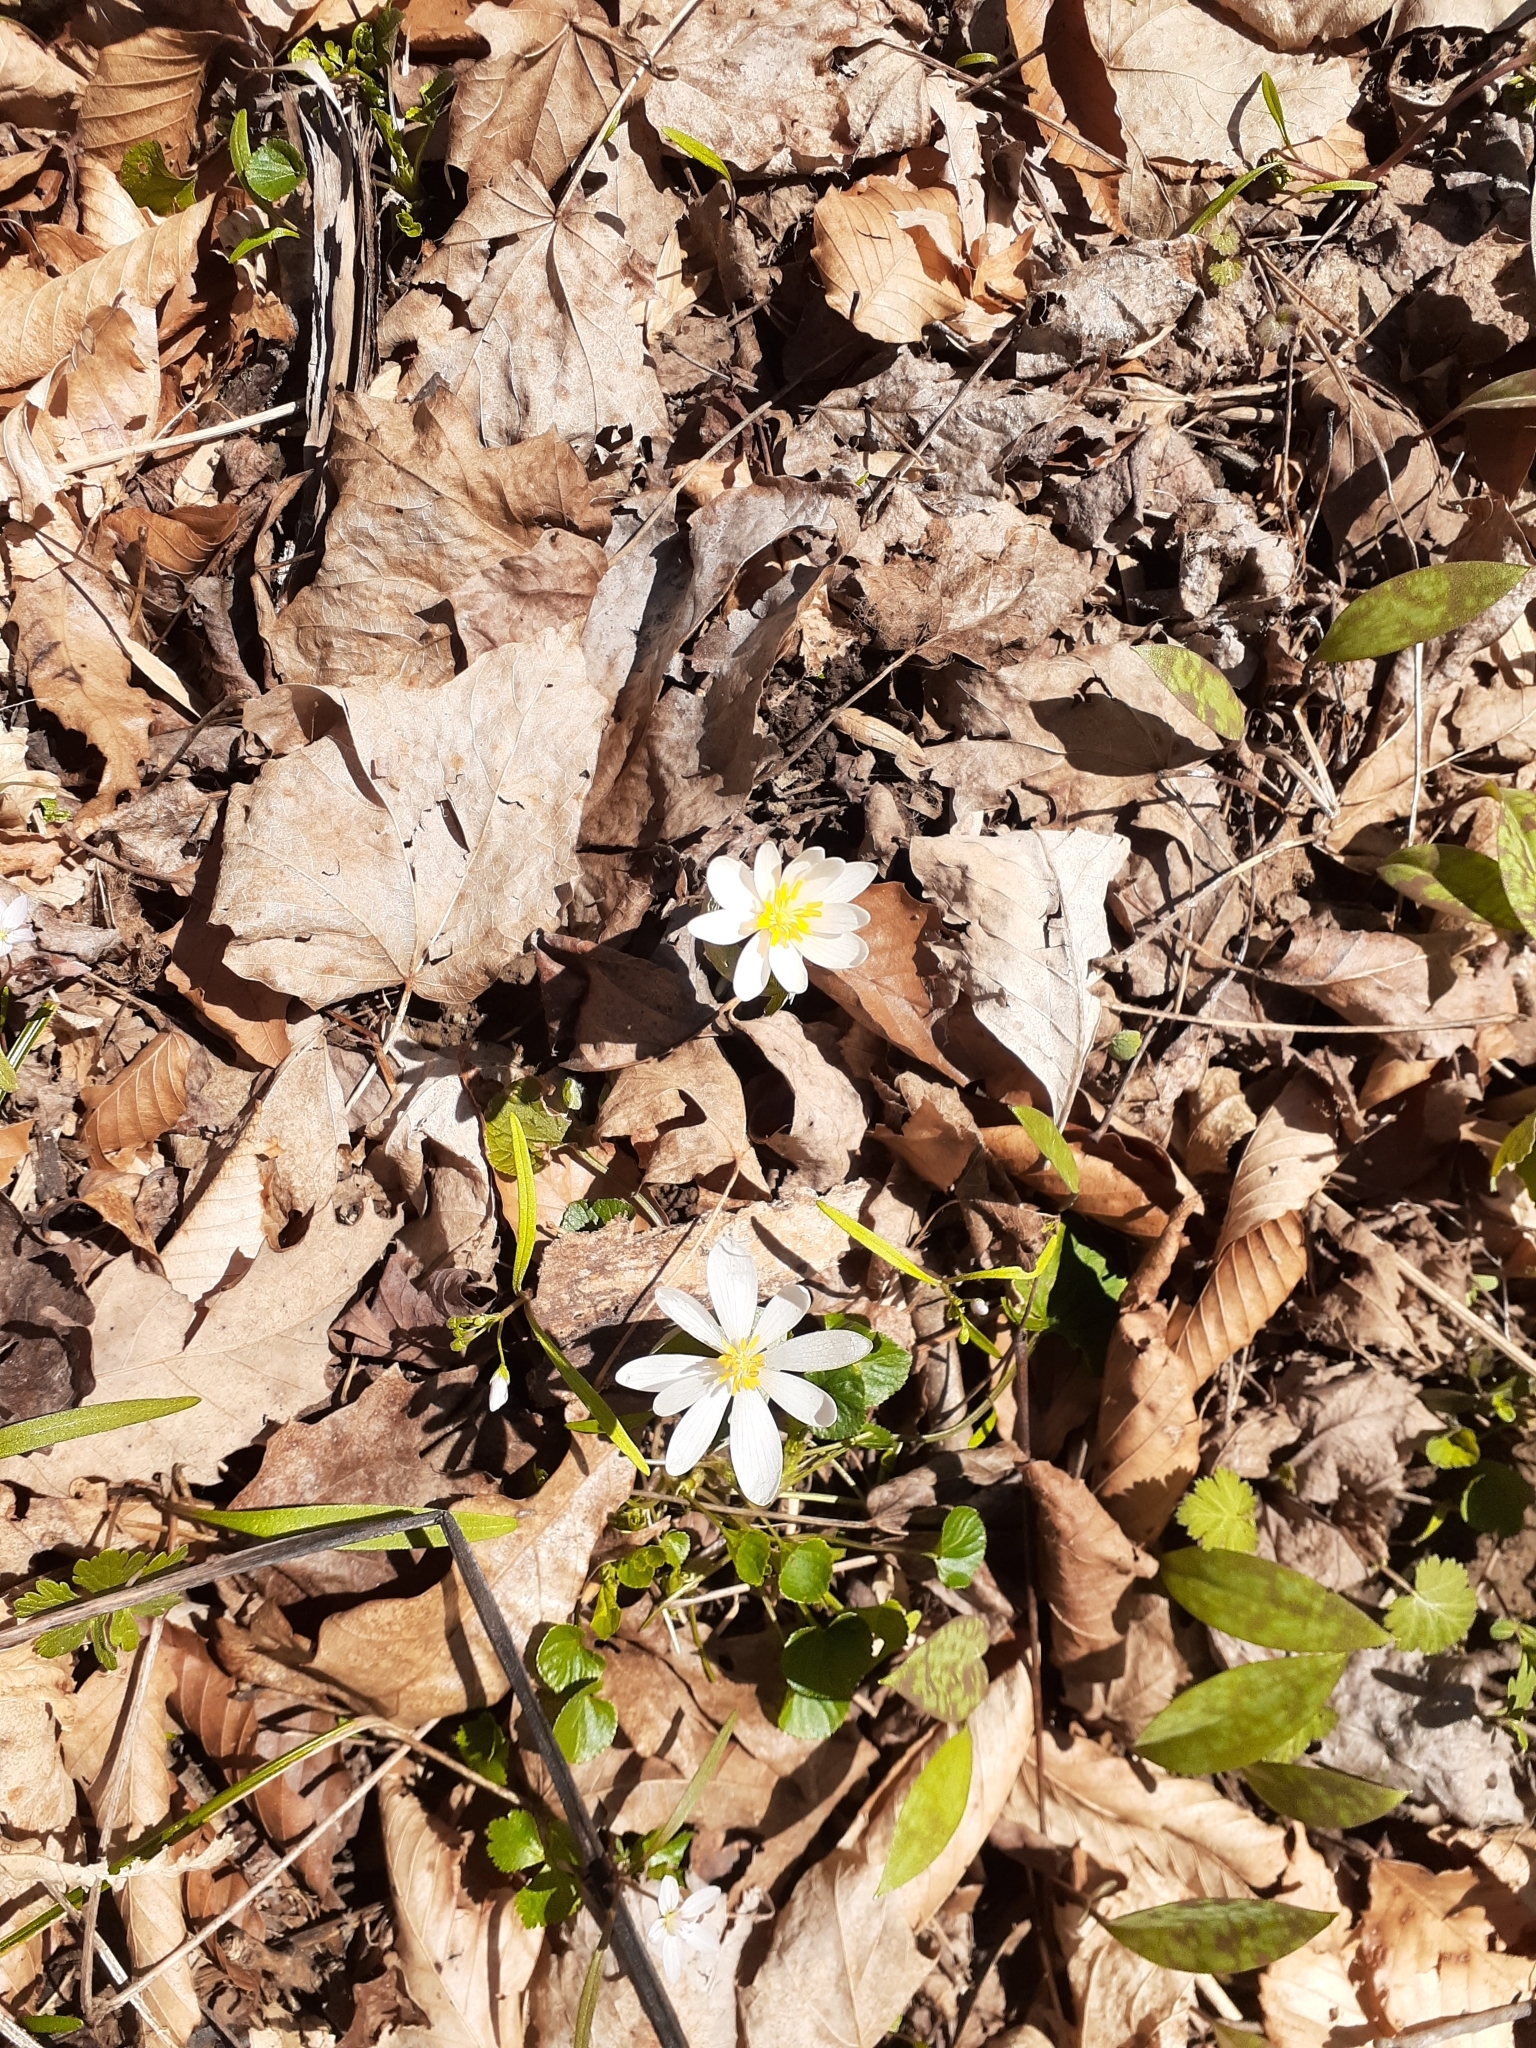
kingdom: Plantae
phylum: Tracheophyta
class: Magnoliopsida
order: Ranunculales
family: Papaveraceae
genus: Sanguinaria
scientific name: Sanguinaria canadensis
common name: Bloodroot
